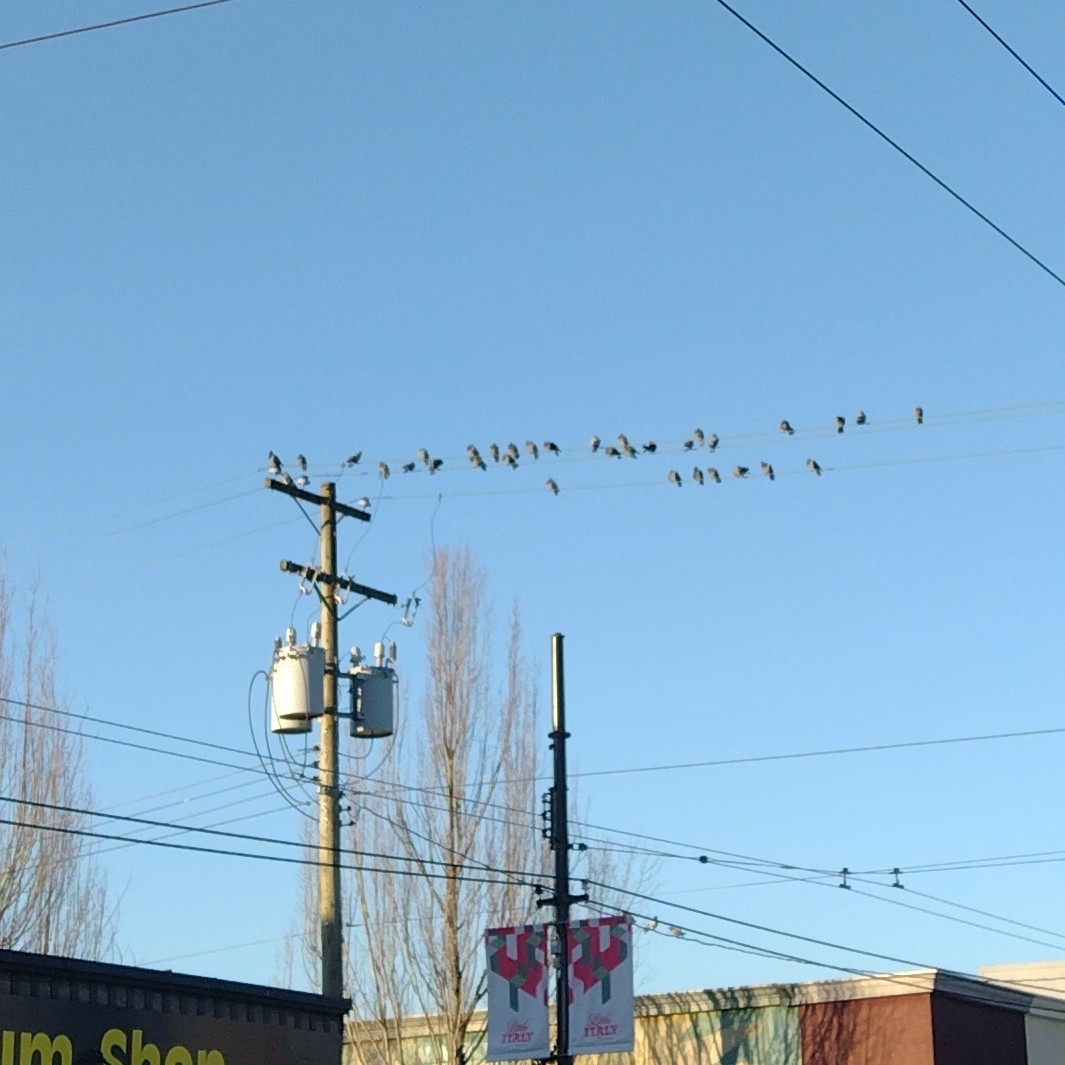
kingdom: Animalia
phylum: Chordata
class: Aves
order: Columbiformes
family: Columbidae
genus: Columba
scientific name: Columba livia
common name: Rock pigeon
